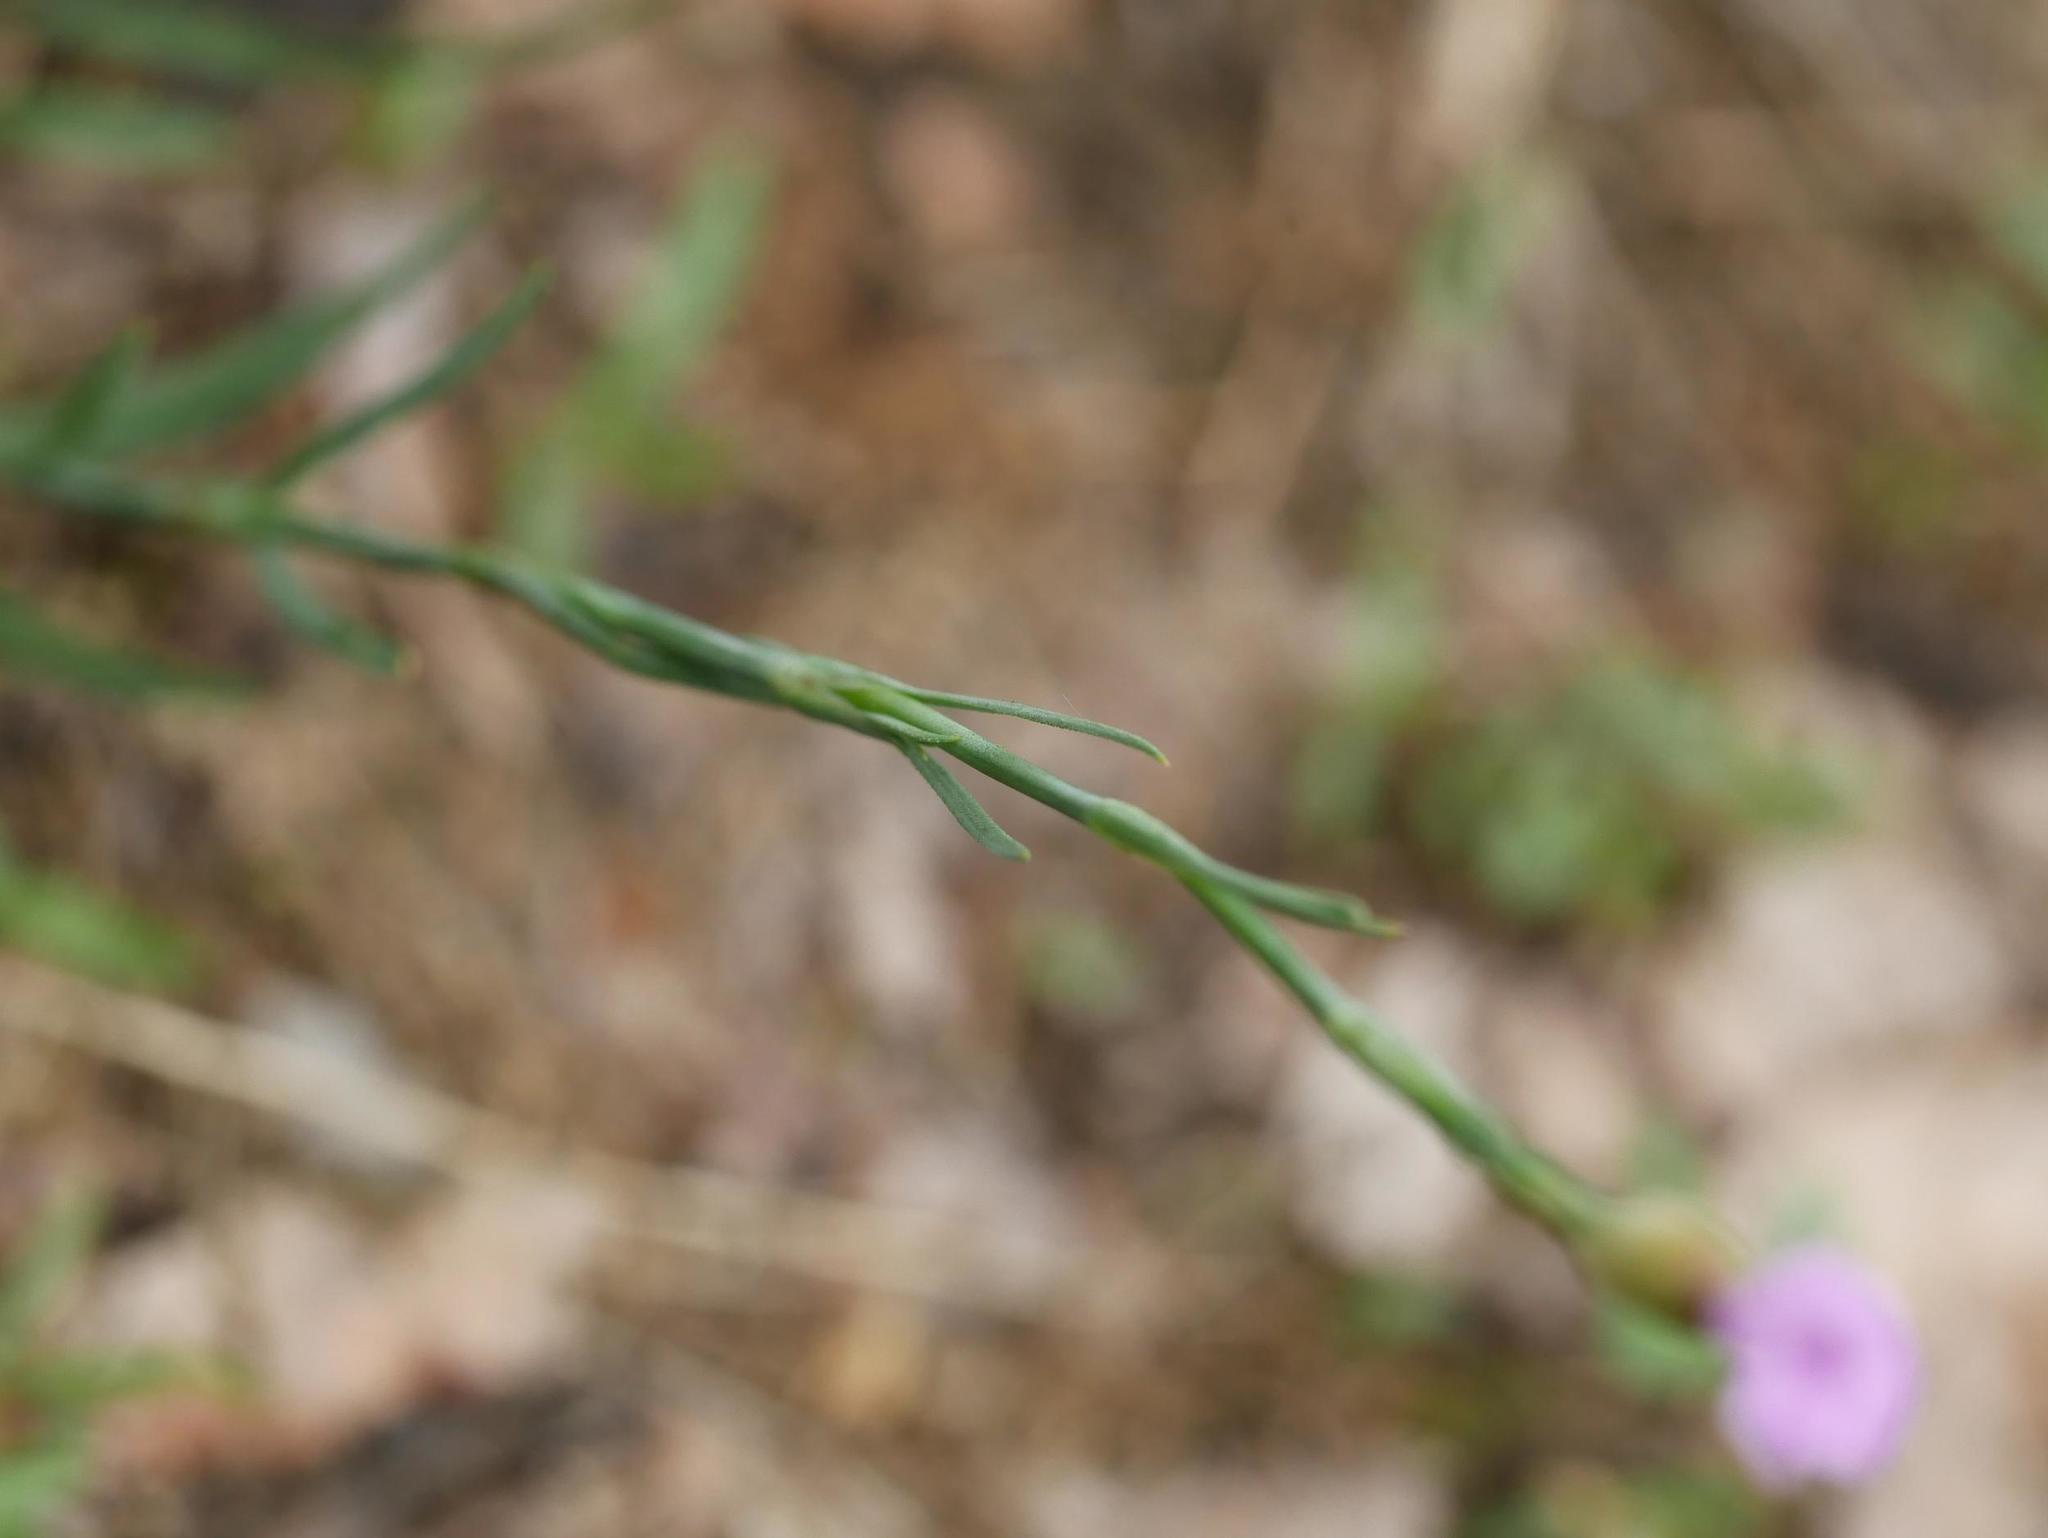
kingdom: Plantae
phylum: Tracheophyta
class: Magnoliopsida
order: Caryophyllales
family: Caryophyllaceae
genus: Petrorhagia
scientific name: Petrorhagia prolifera
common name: Proliferous pink
